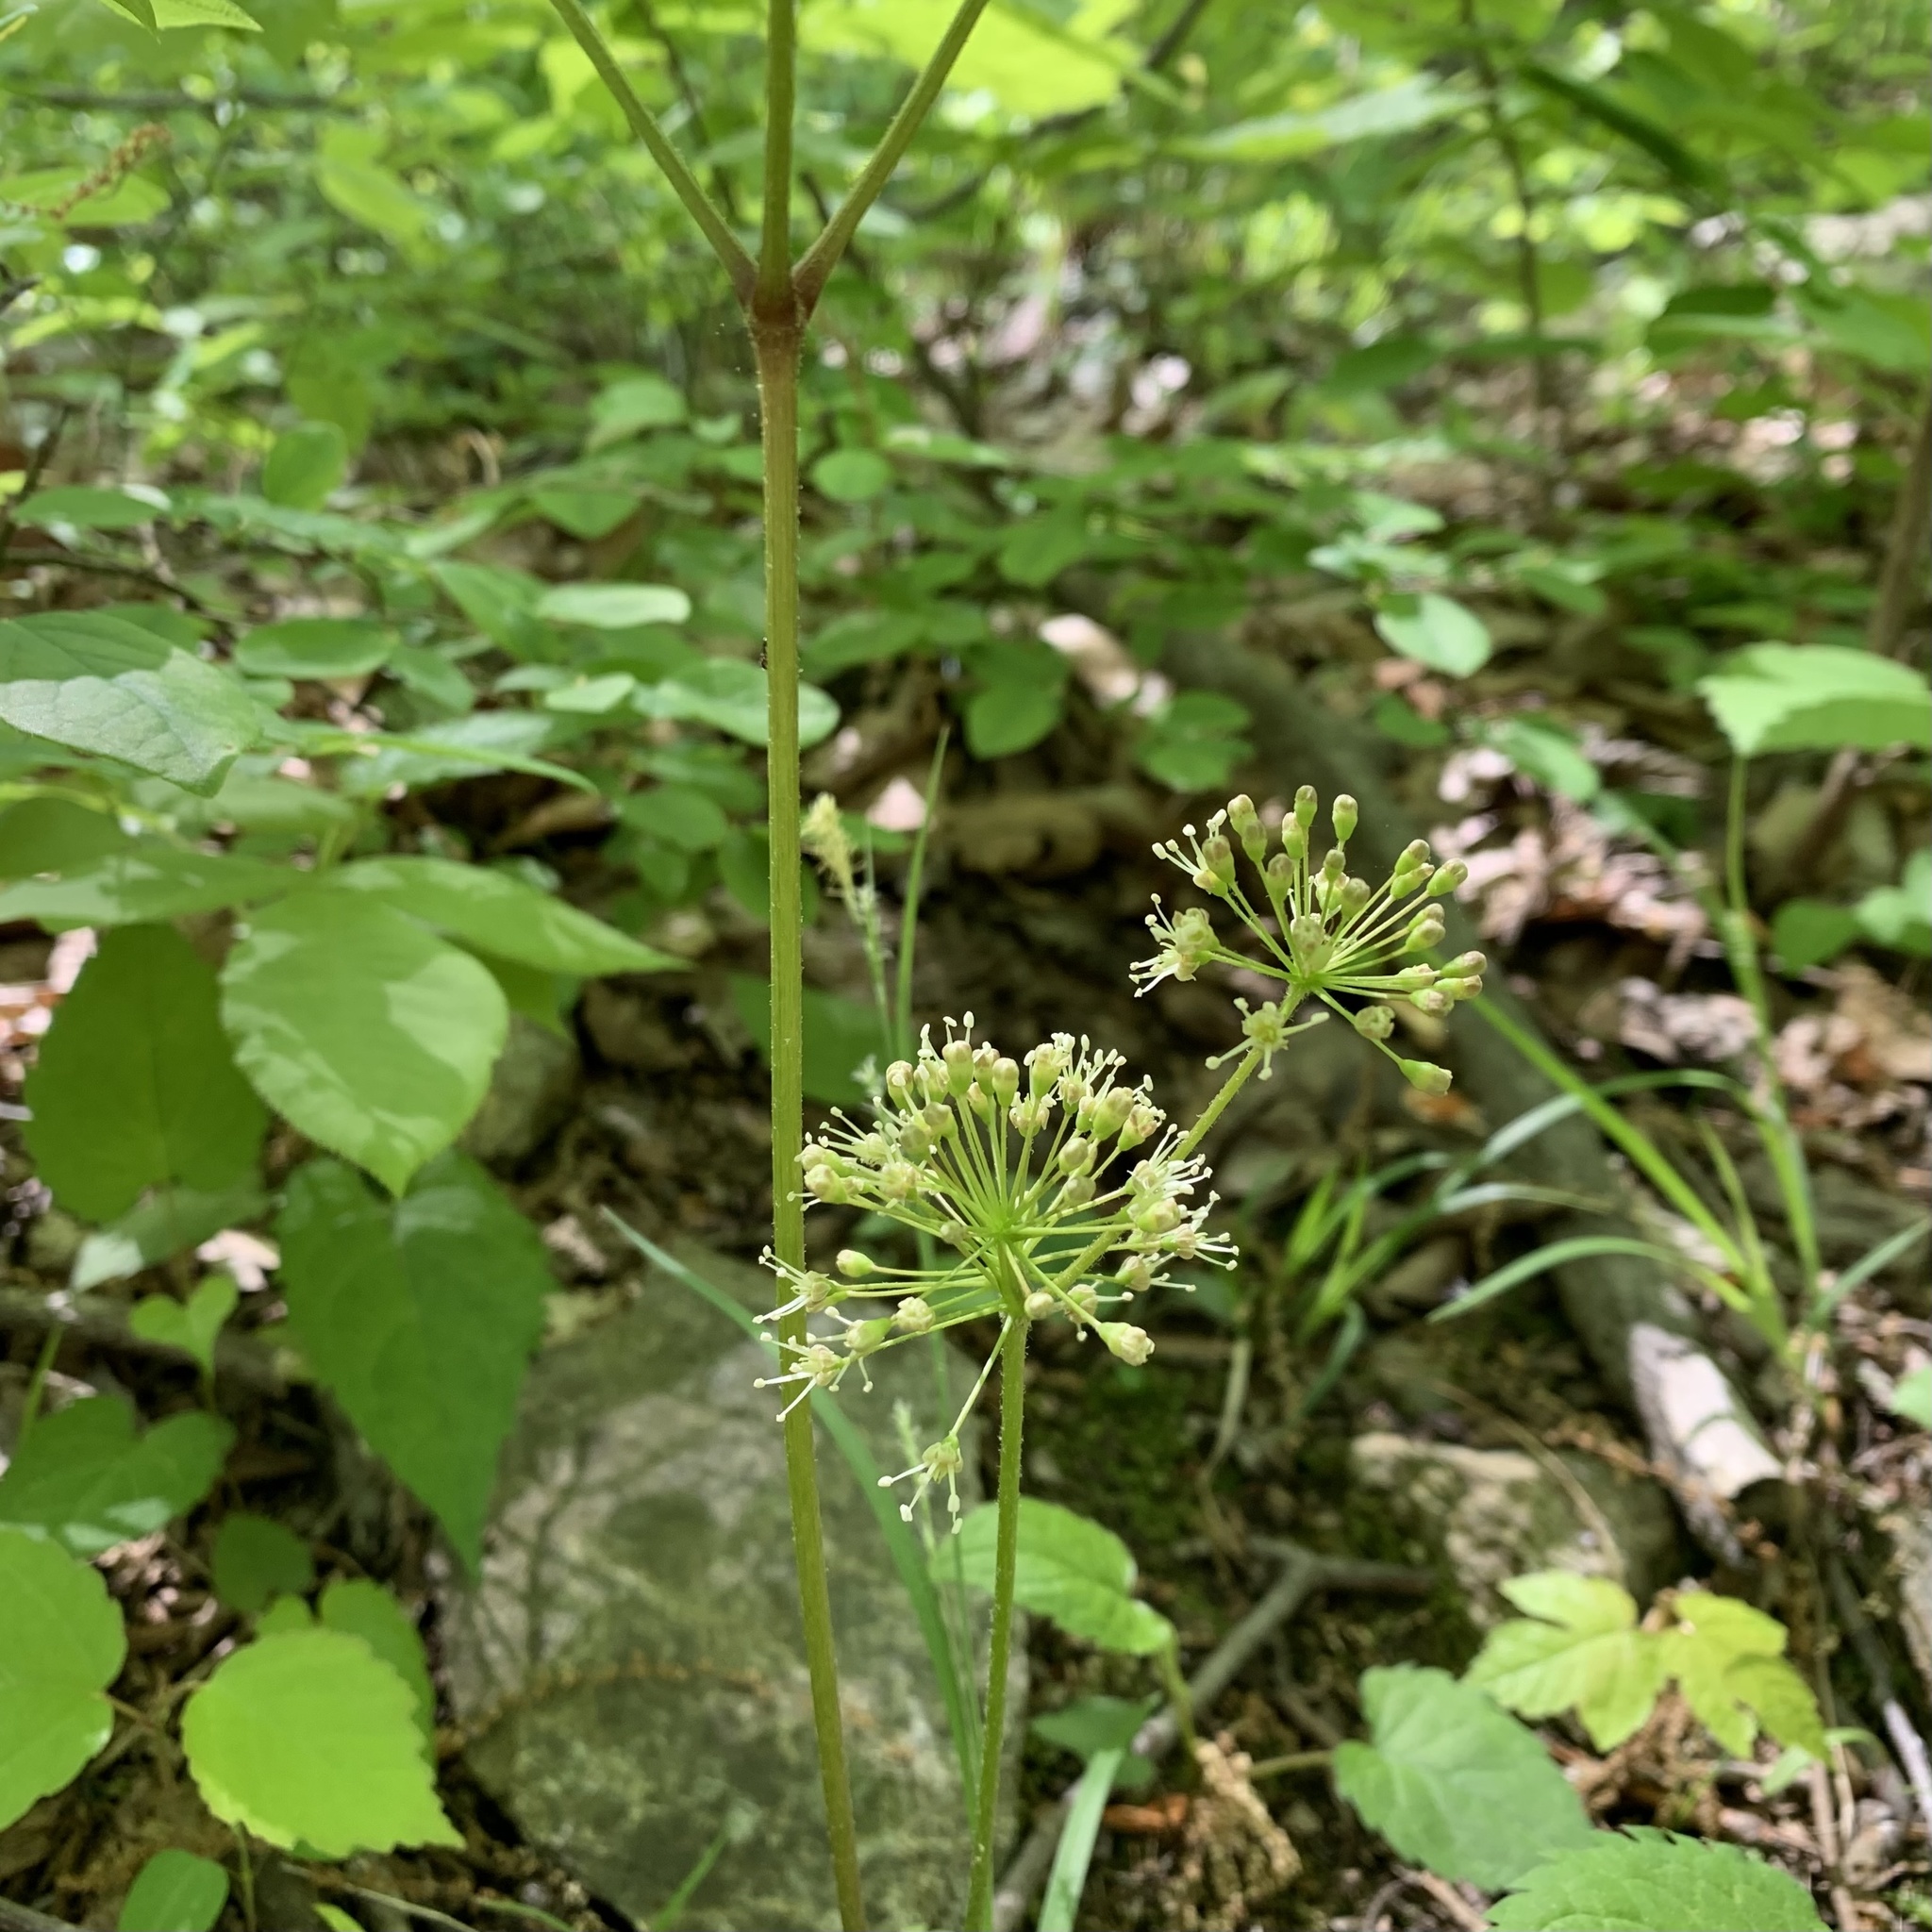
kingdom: Plantae
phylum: Tracheophyta
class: Magnoliopsida
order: Apiales
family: Araliaceae
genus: Aralia
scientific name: Aralia nudicaulis
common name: Wild sarsaparilla
